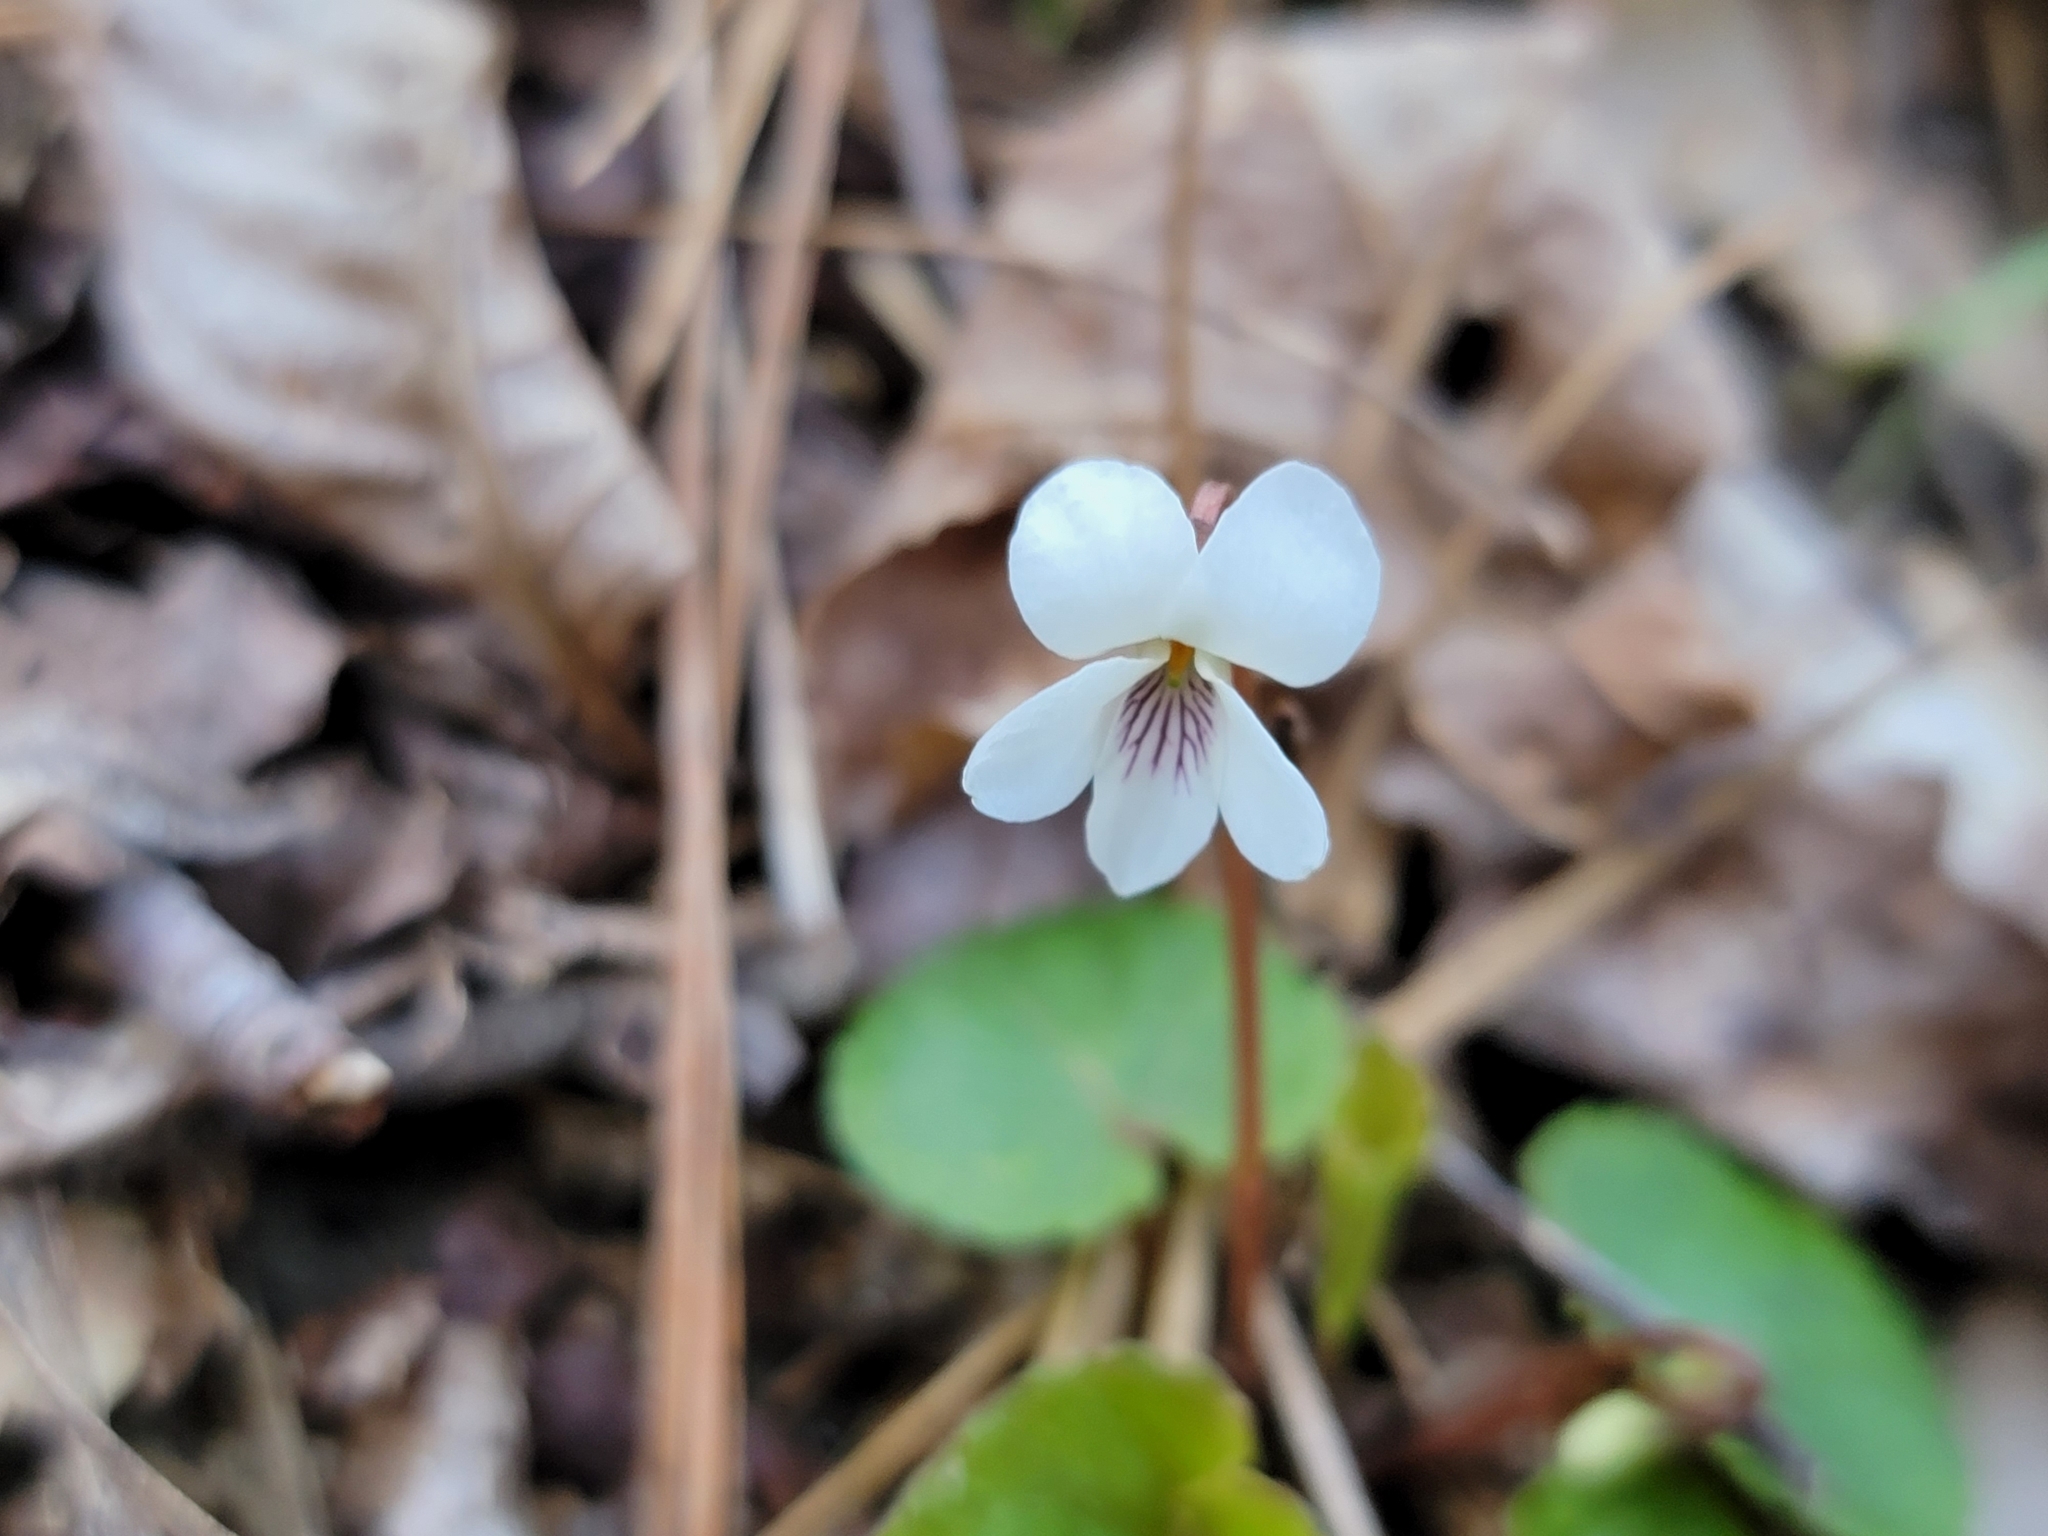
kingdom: Plantae
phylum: Tracheophyta
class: Magnoliopsida
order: Malpighiales
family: Violaceae
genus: Viola
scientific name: Viola blanda
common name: Sweet white violet
